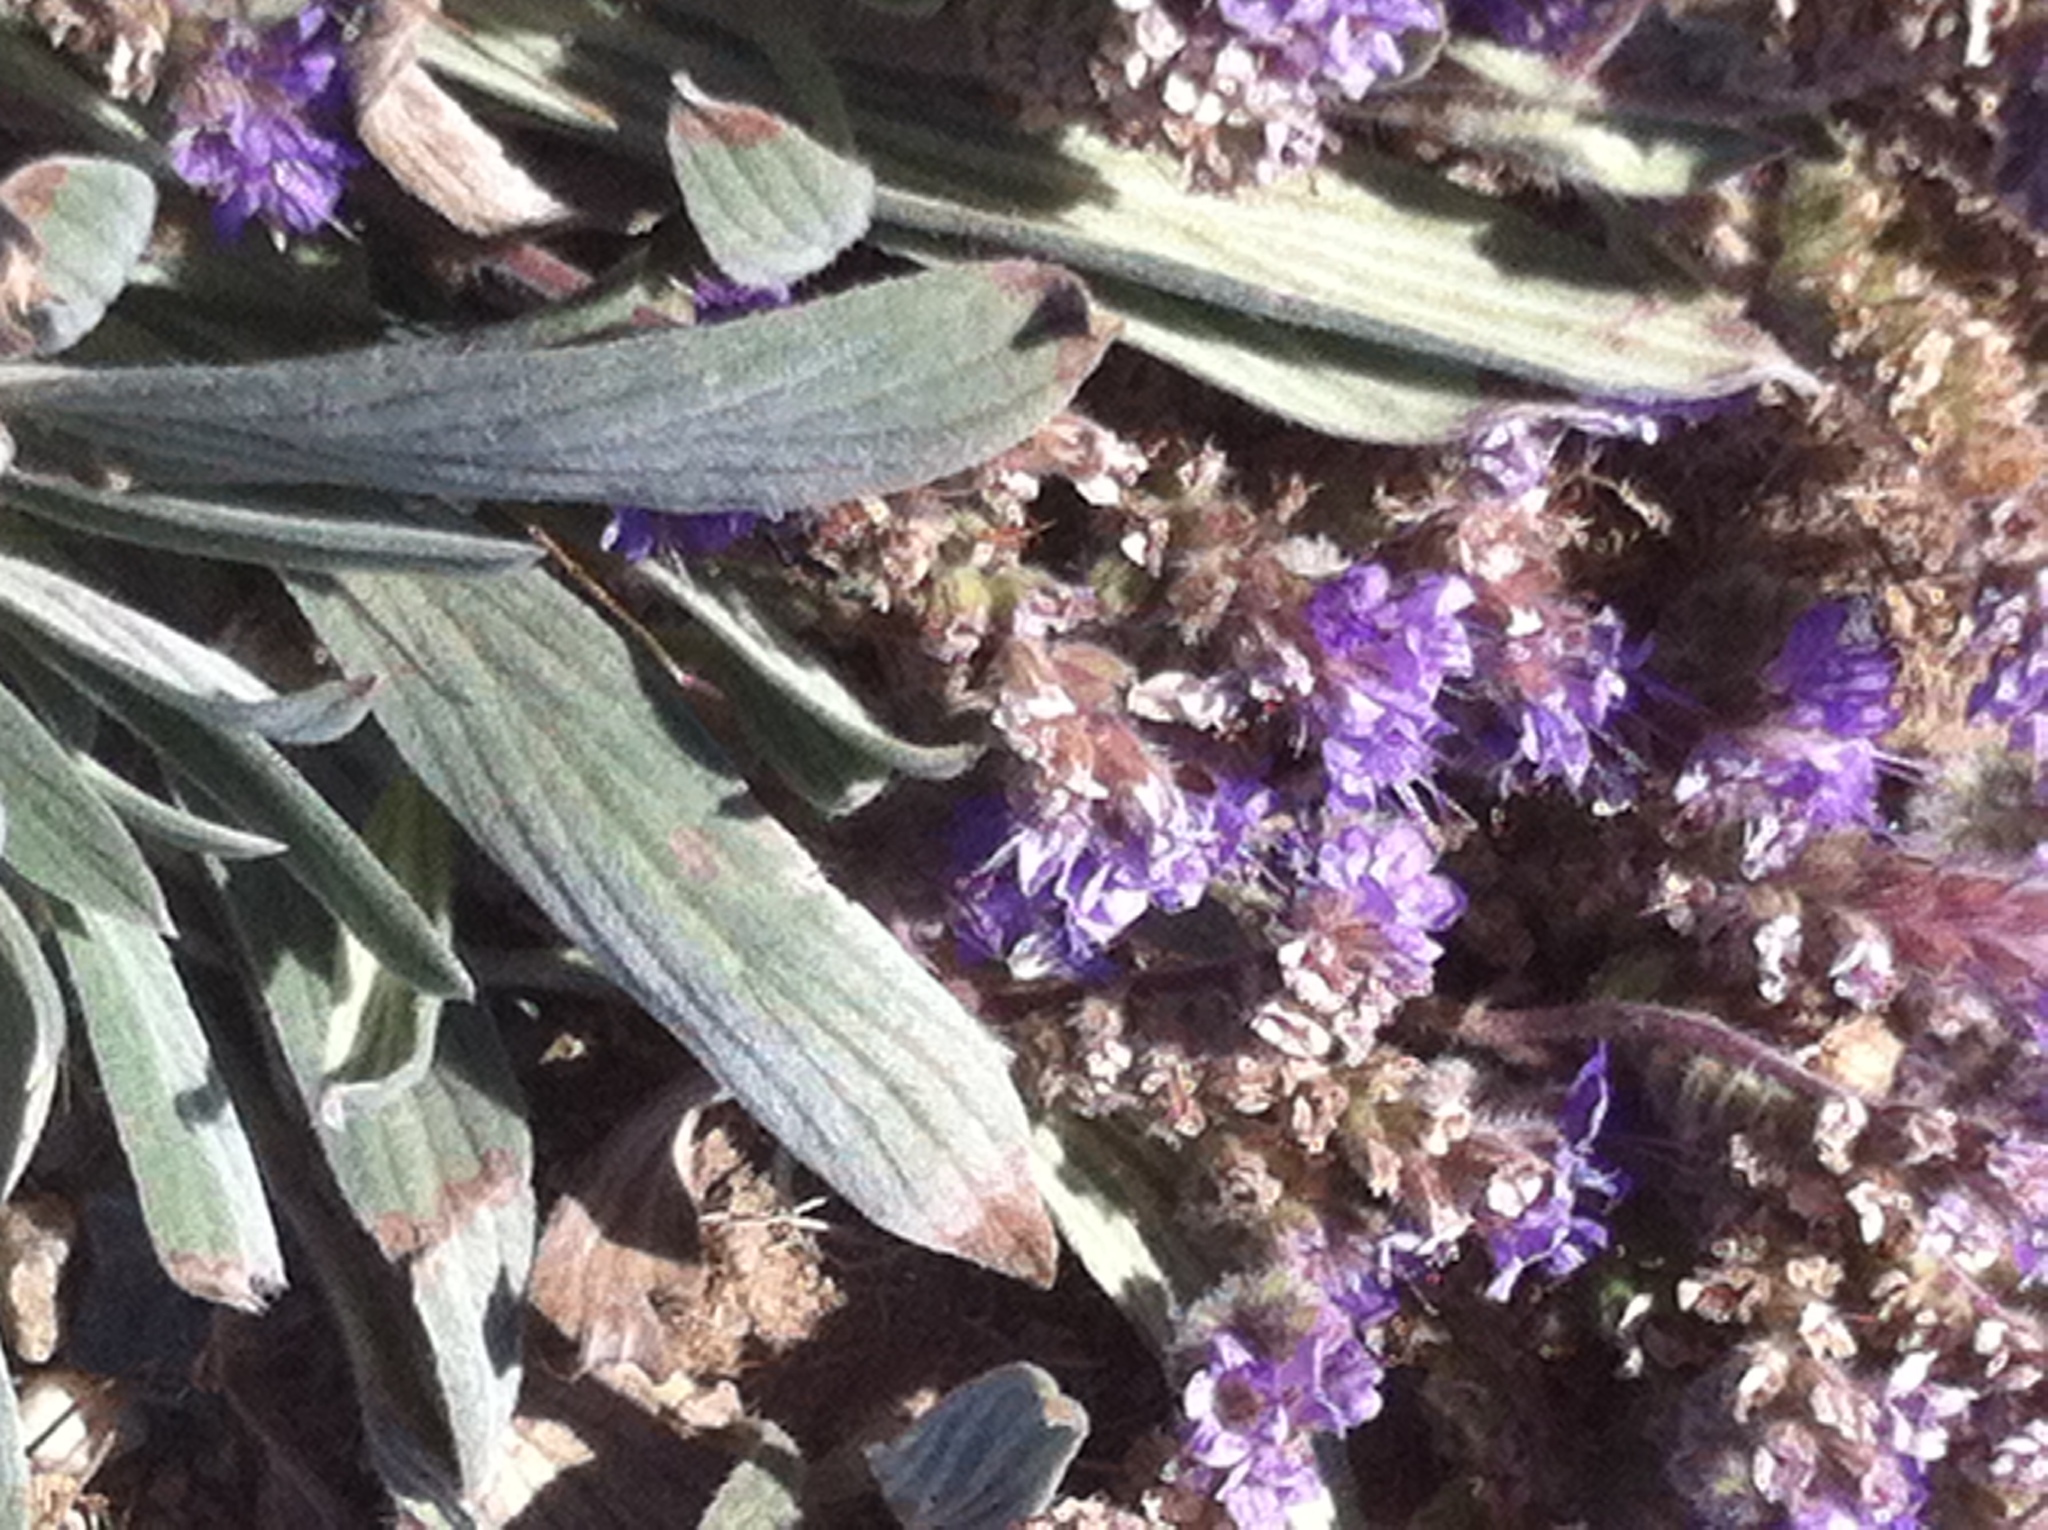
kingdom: Plantae
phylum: Tracheophyta
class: Magnoliopsida
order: Boraginales
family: Hydrophyllaceae
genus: Phacelia
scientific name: Phacelia hastata
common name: Silver-leaved phacelia
